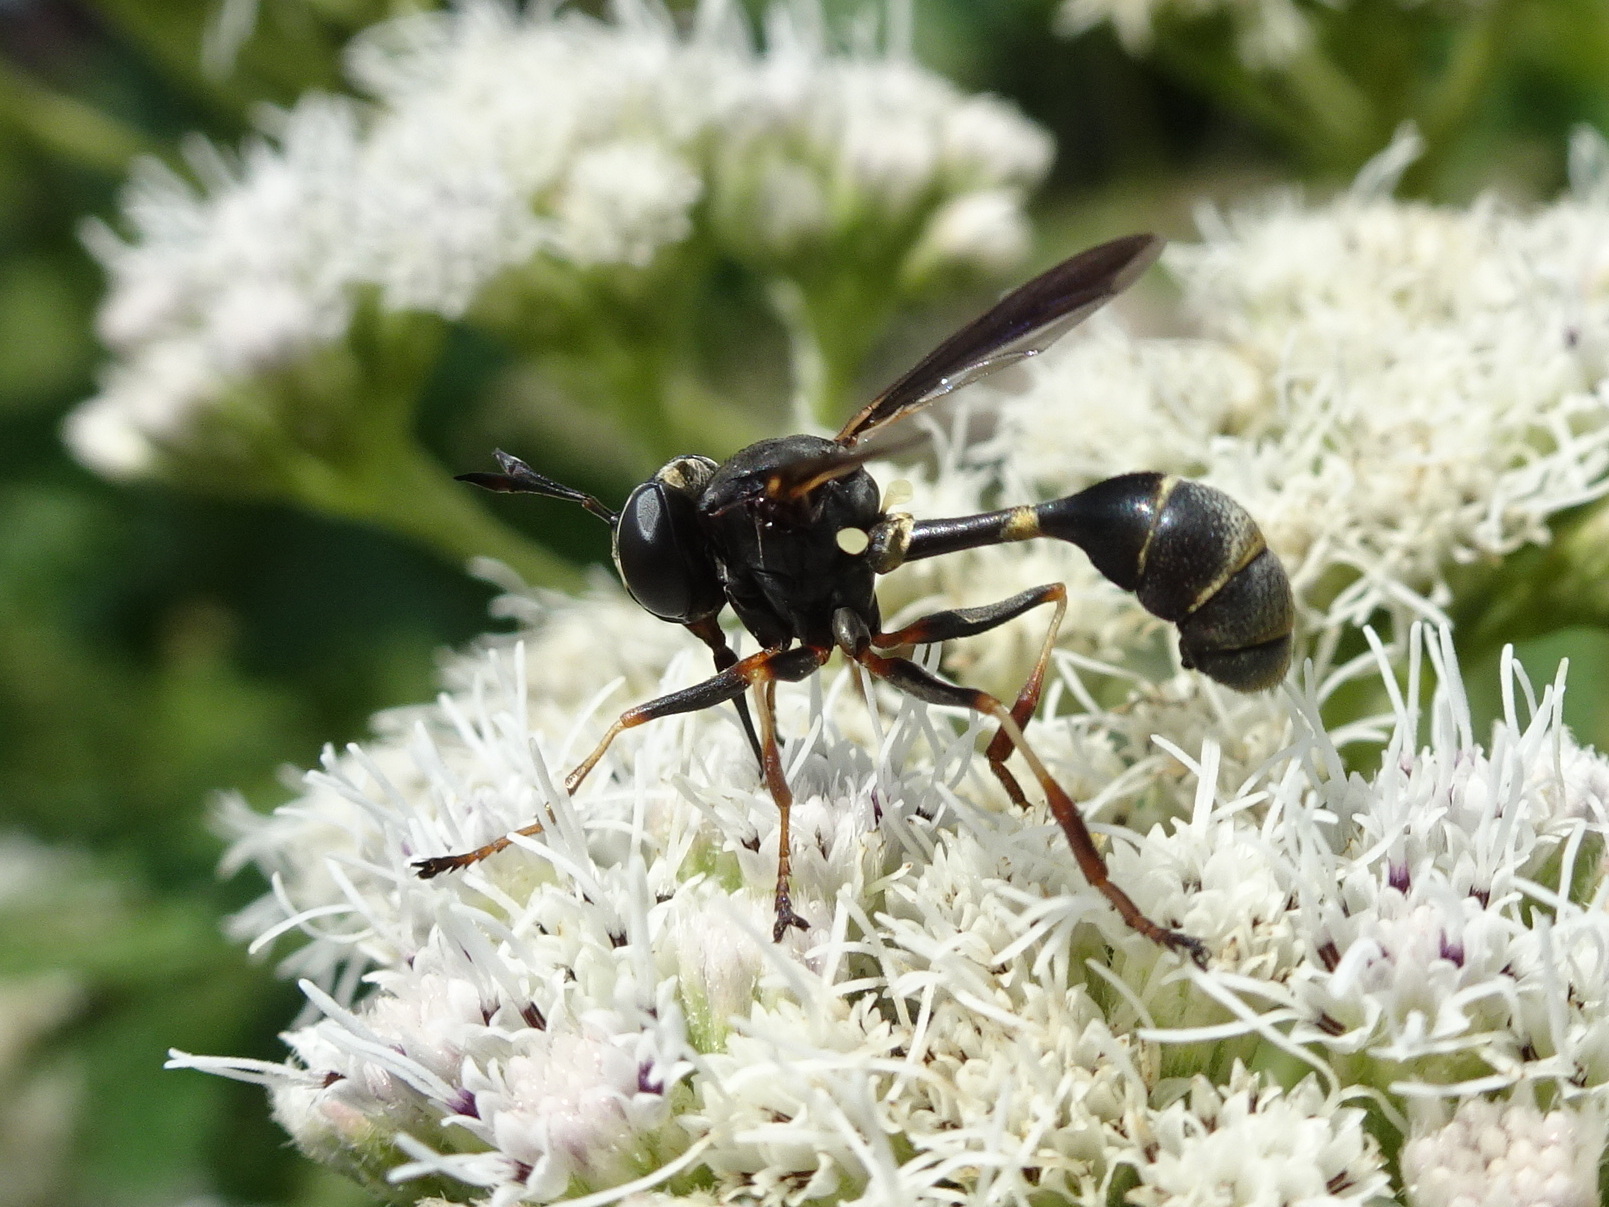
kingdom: Animalia
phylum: Arthropoda
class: Insecta
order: Diptera
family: Conopidae
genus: Physocephala
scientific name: Physocephala tibialis
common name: Common eastern physocephala
